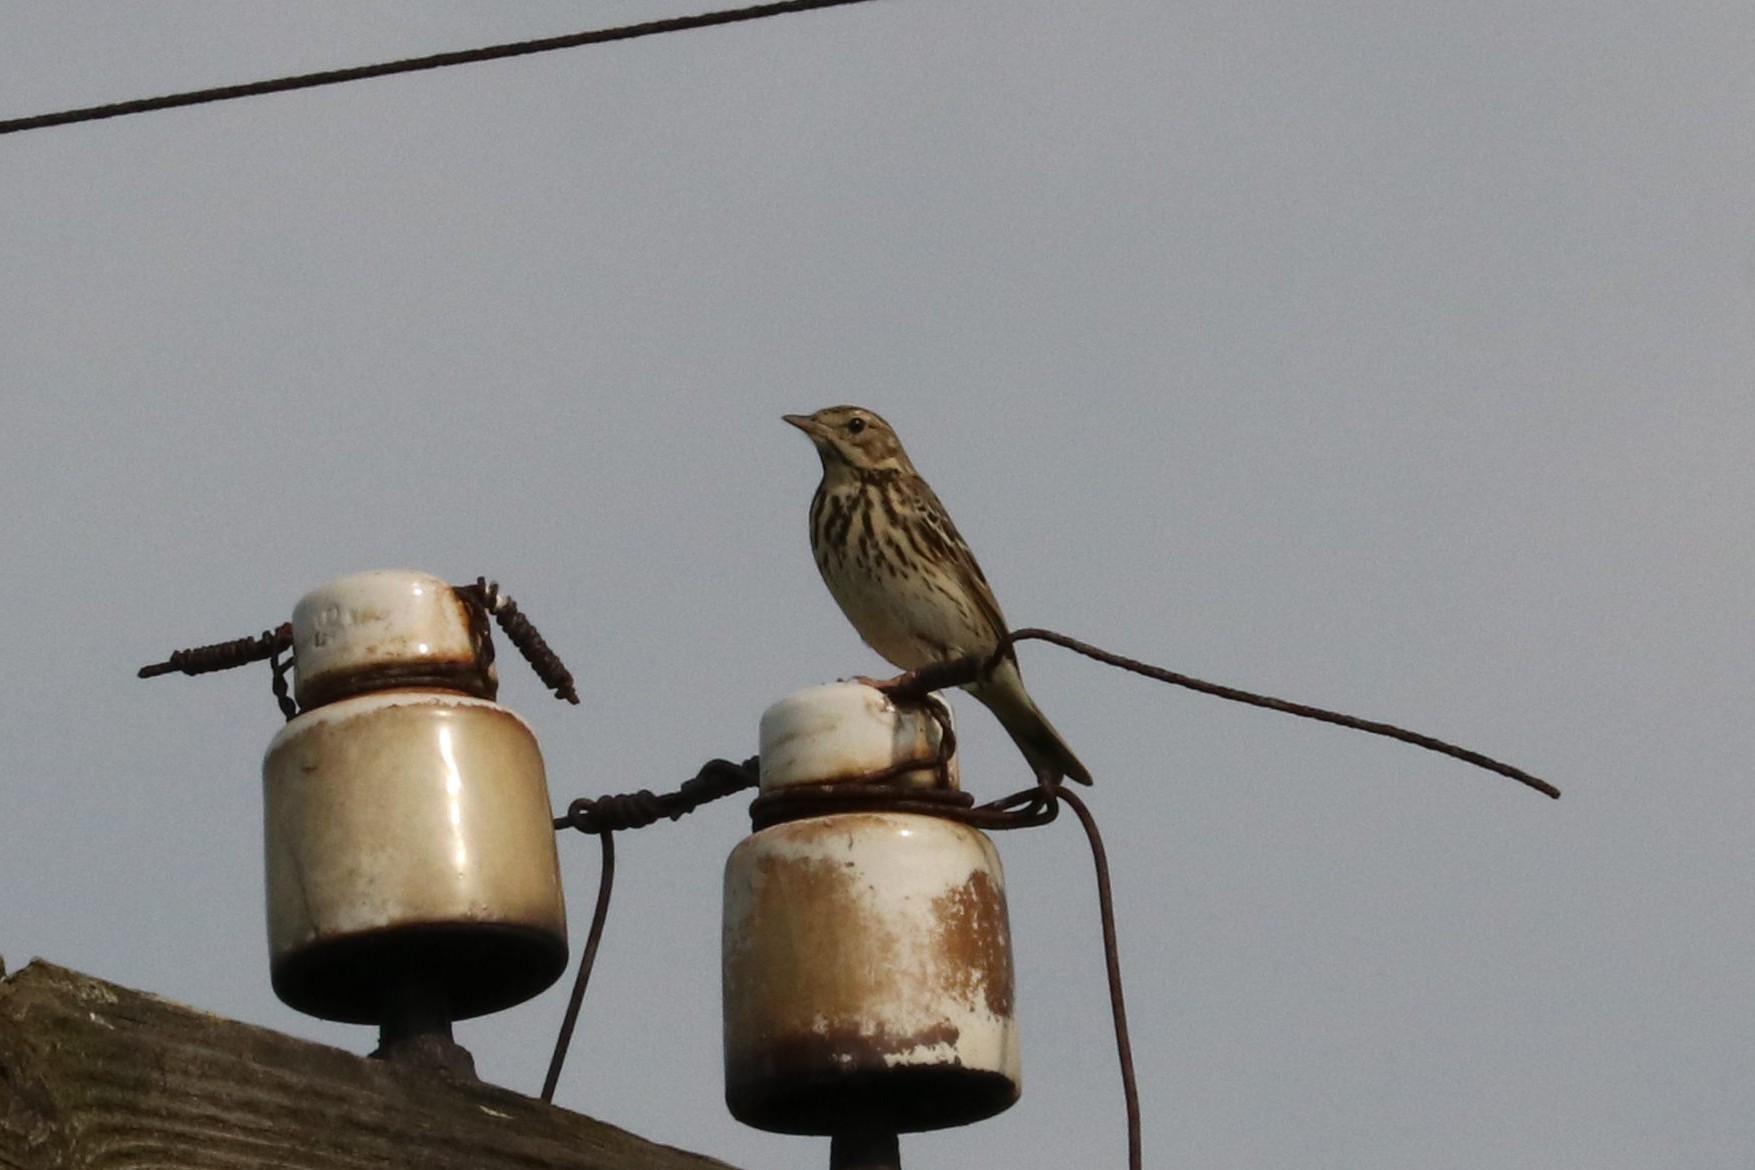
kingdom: Animalia
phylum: Chordata
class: Aves
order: Passeriformes
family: Motacillidae
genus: Anthus
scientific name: Anthus trivialis
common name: Tree pipit
